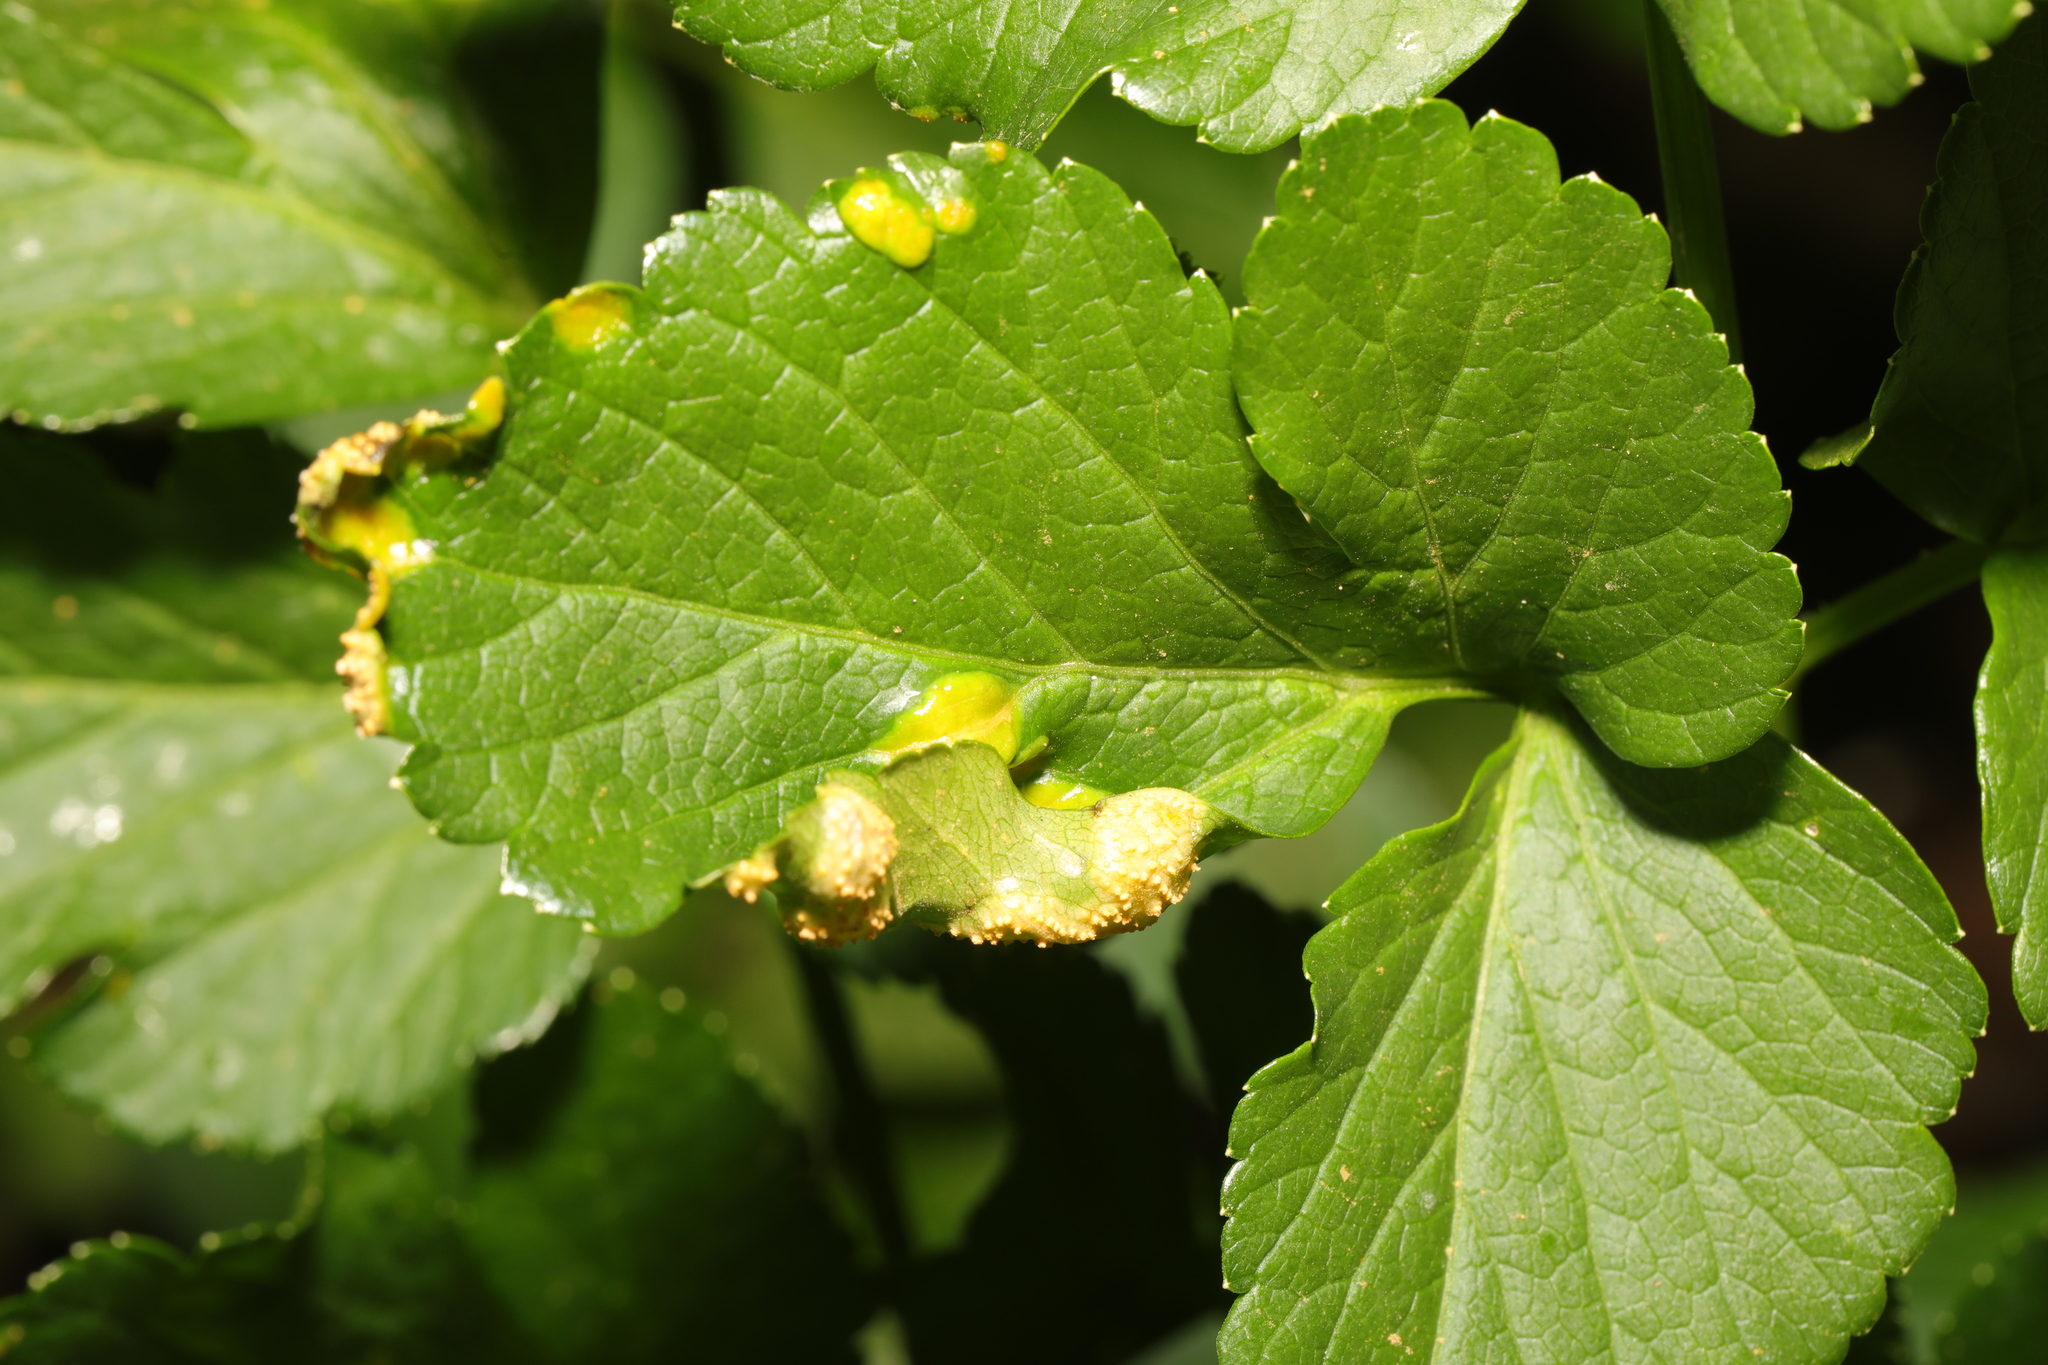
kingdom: Fungi
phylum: Basidiomycota
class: Pucciniomycetes
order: Pucciniales
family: Pucciniaceae
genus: Puccinia
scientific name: Puccinia smyrnii
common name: Alexanders rust
